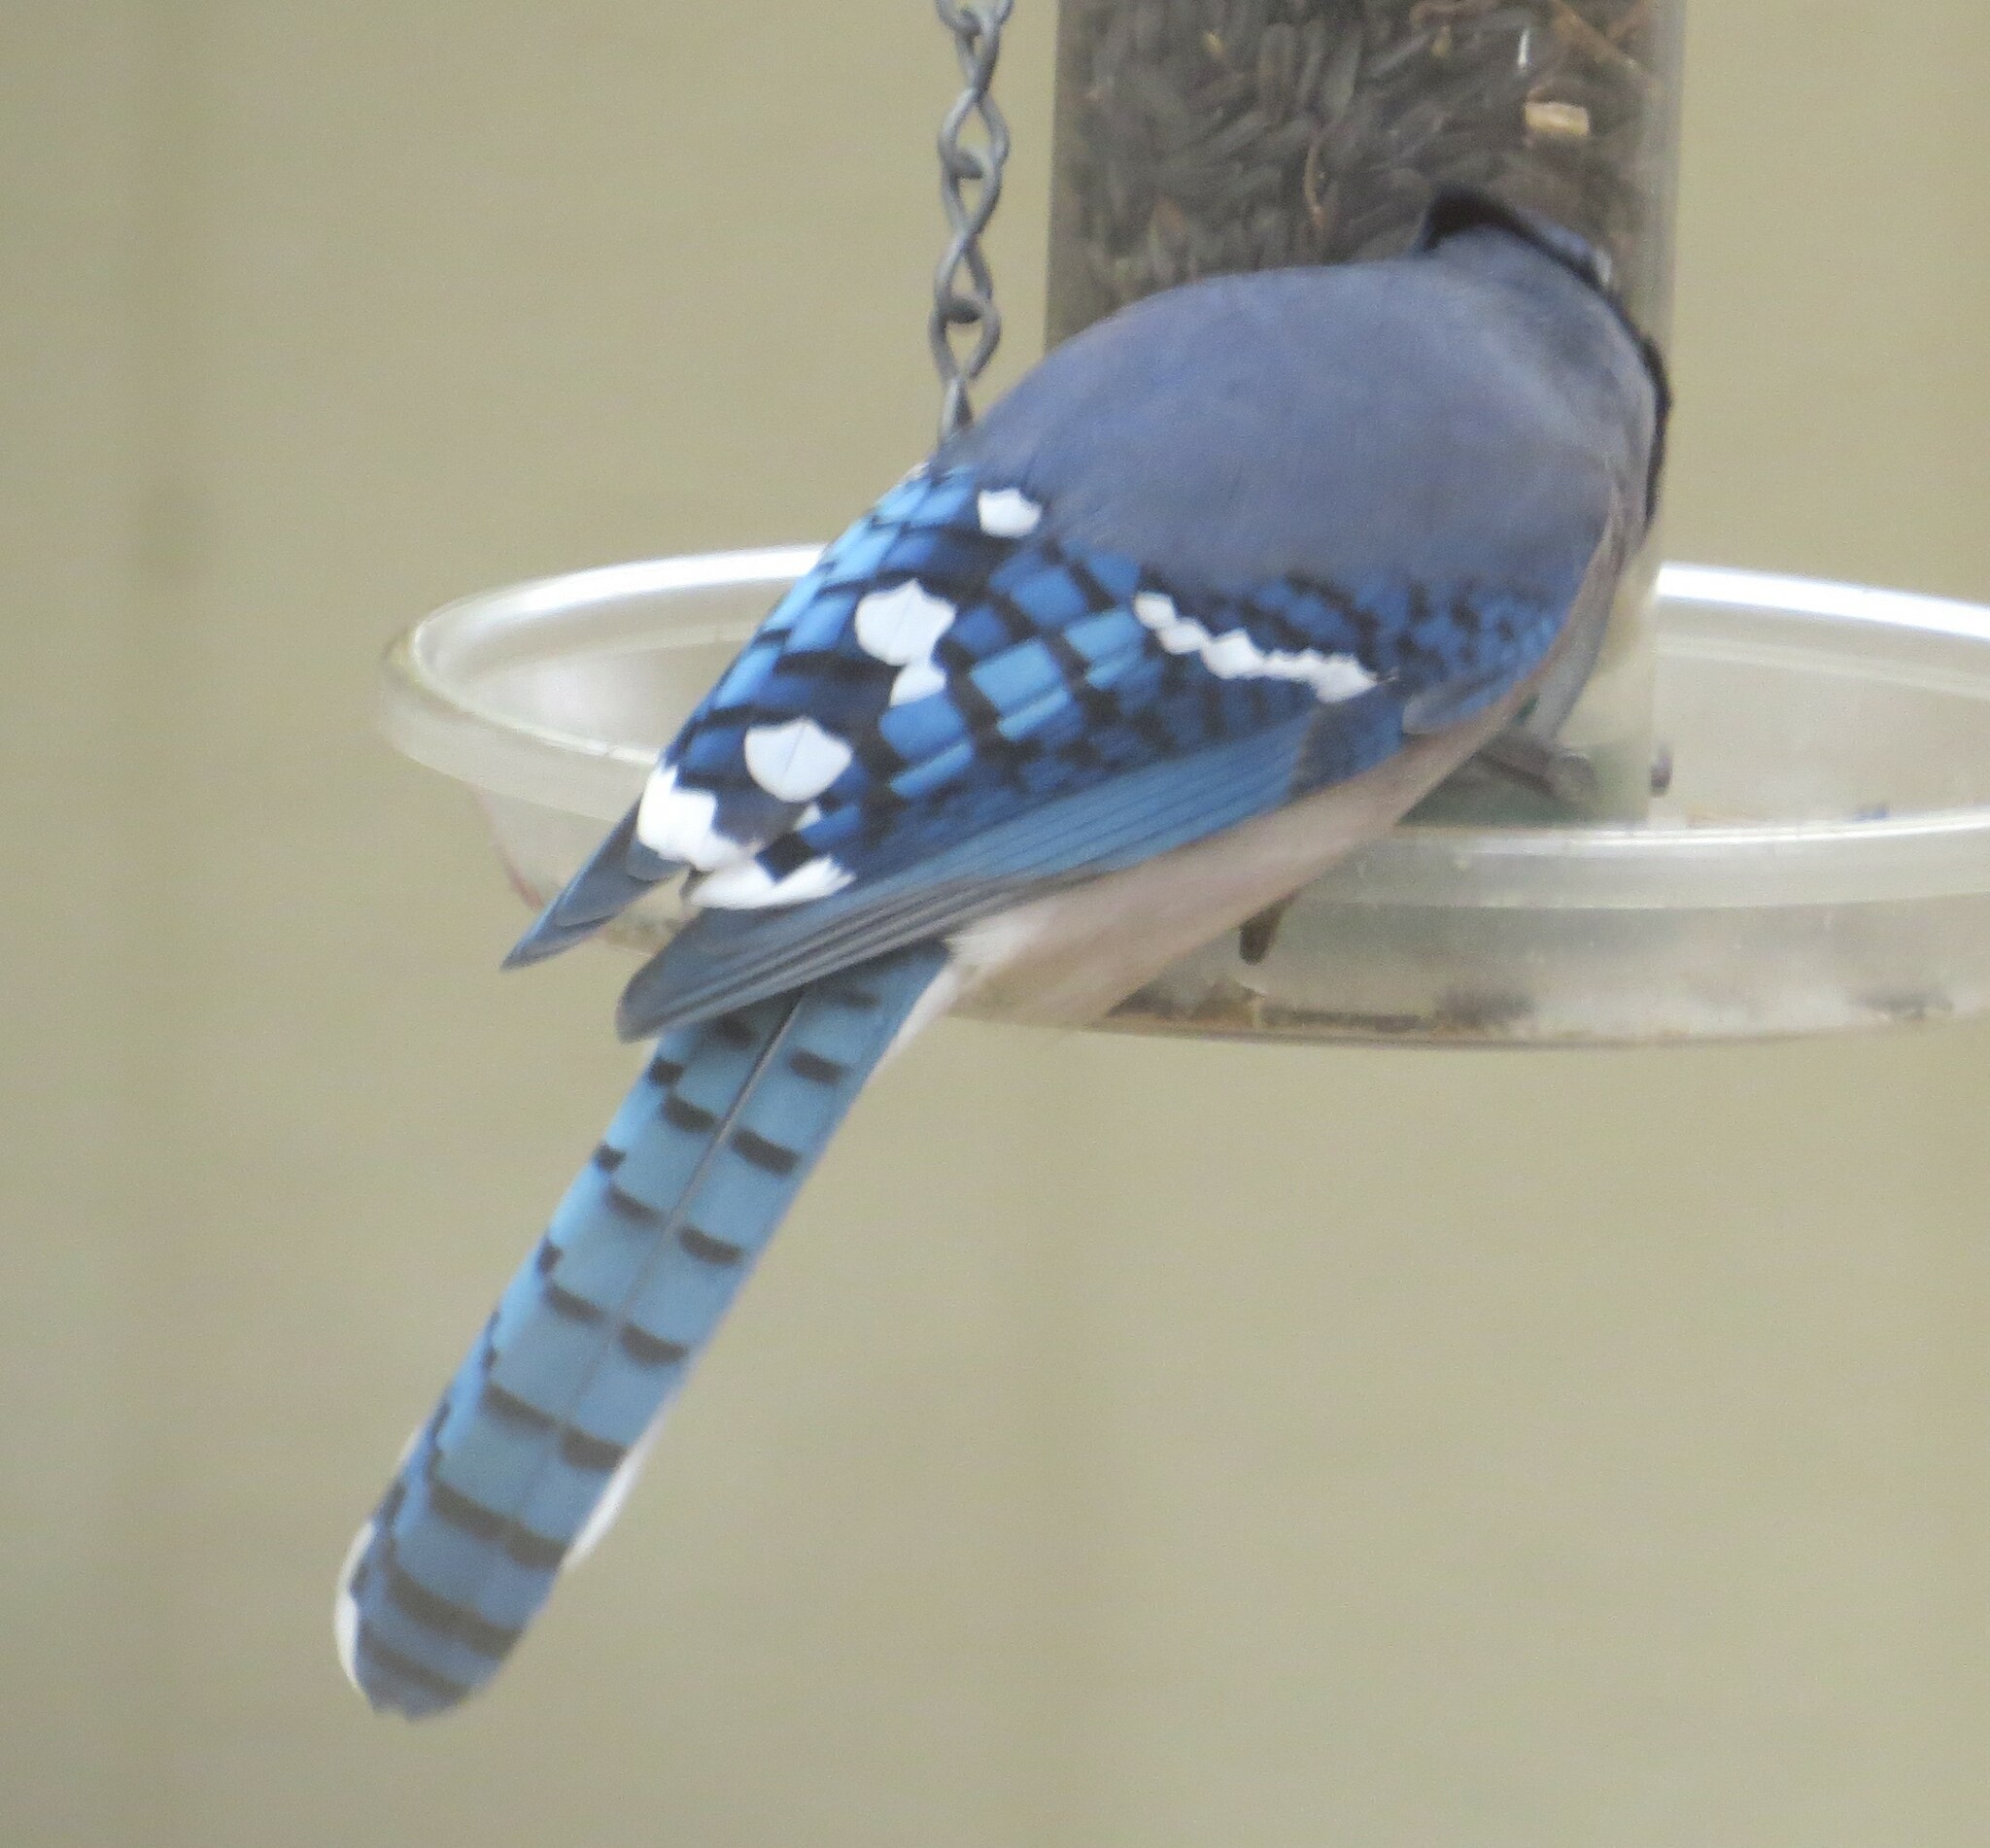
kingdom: Animalia
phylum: Chordata
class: Aves
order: Passeriformes
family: Corvidae
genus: Cyanocitta
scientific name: Cyanocitta cristata
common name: Blue jay
